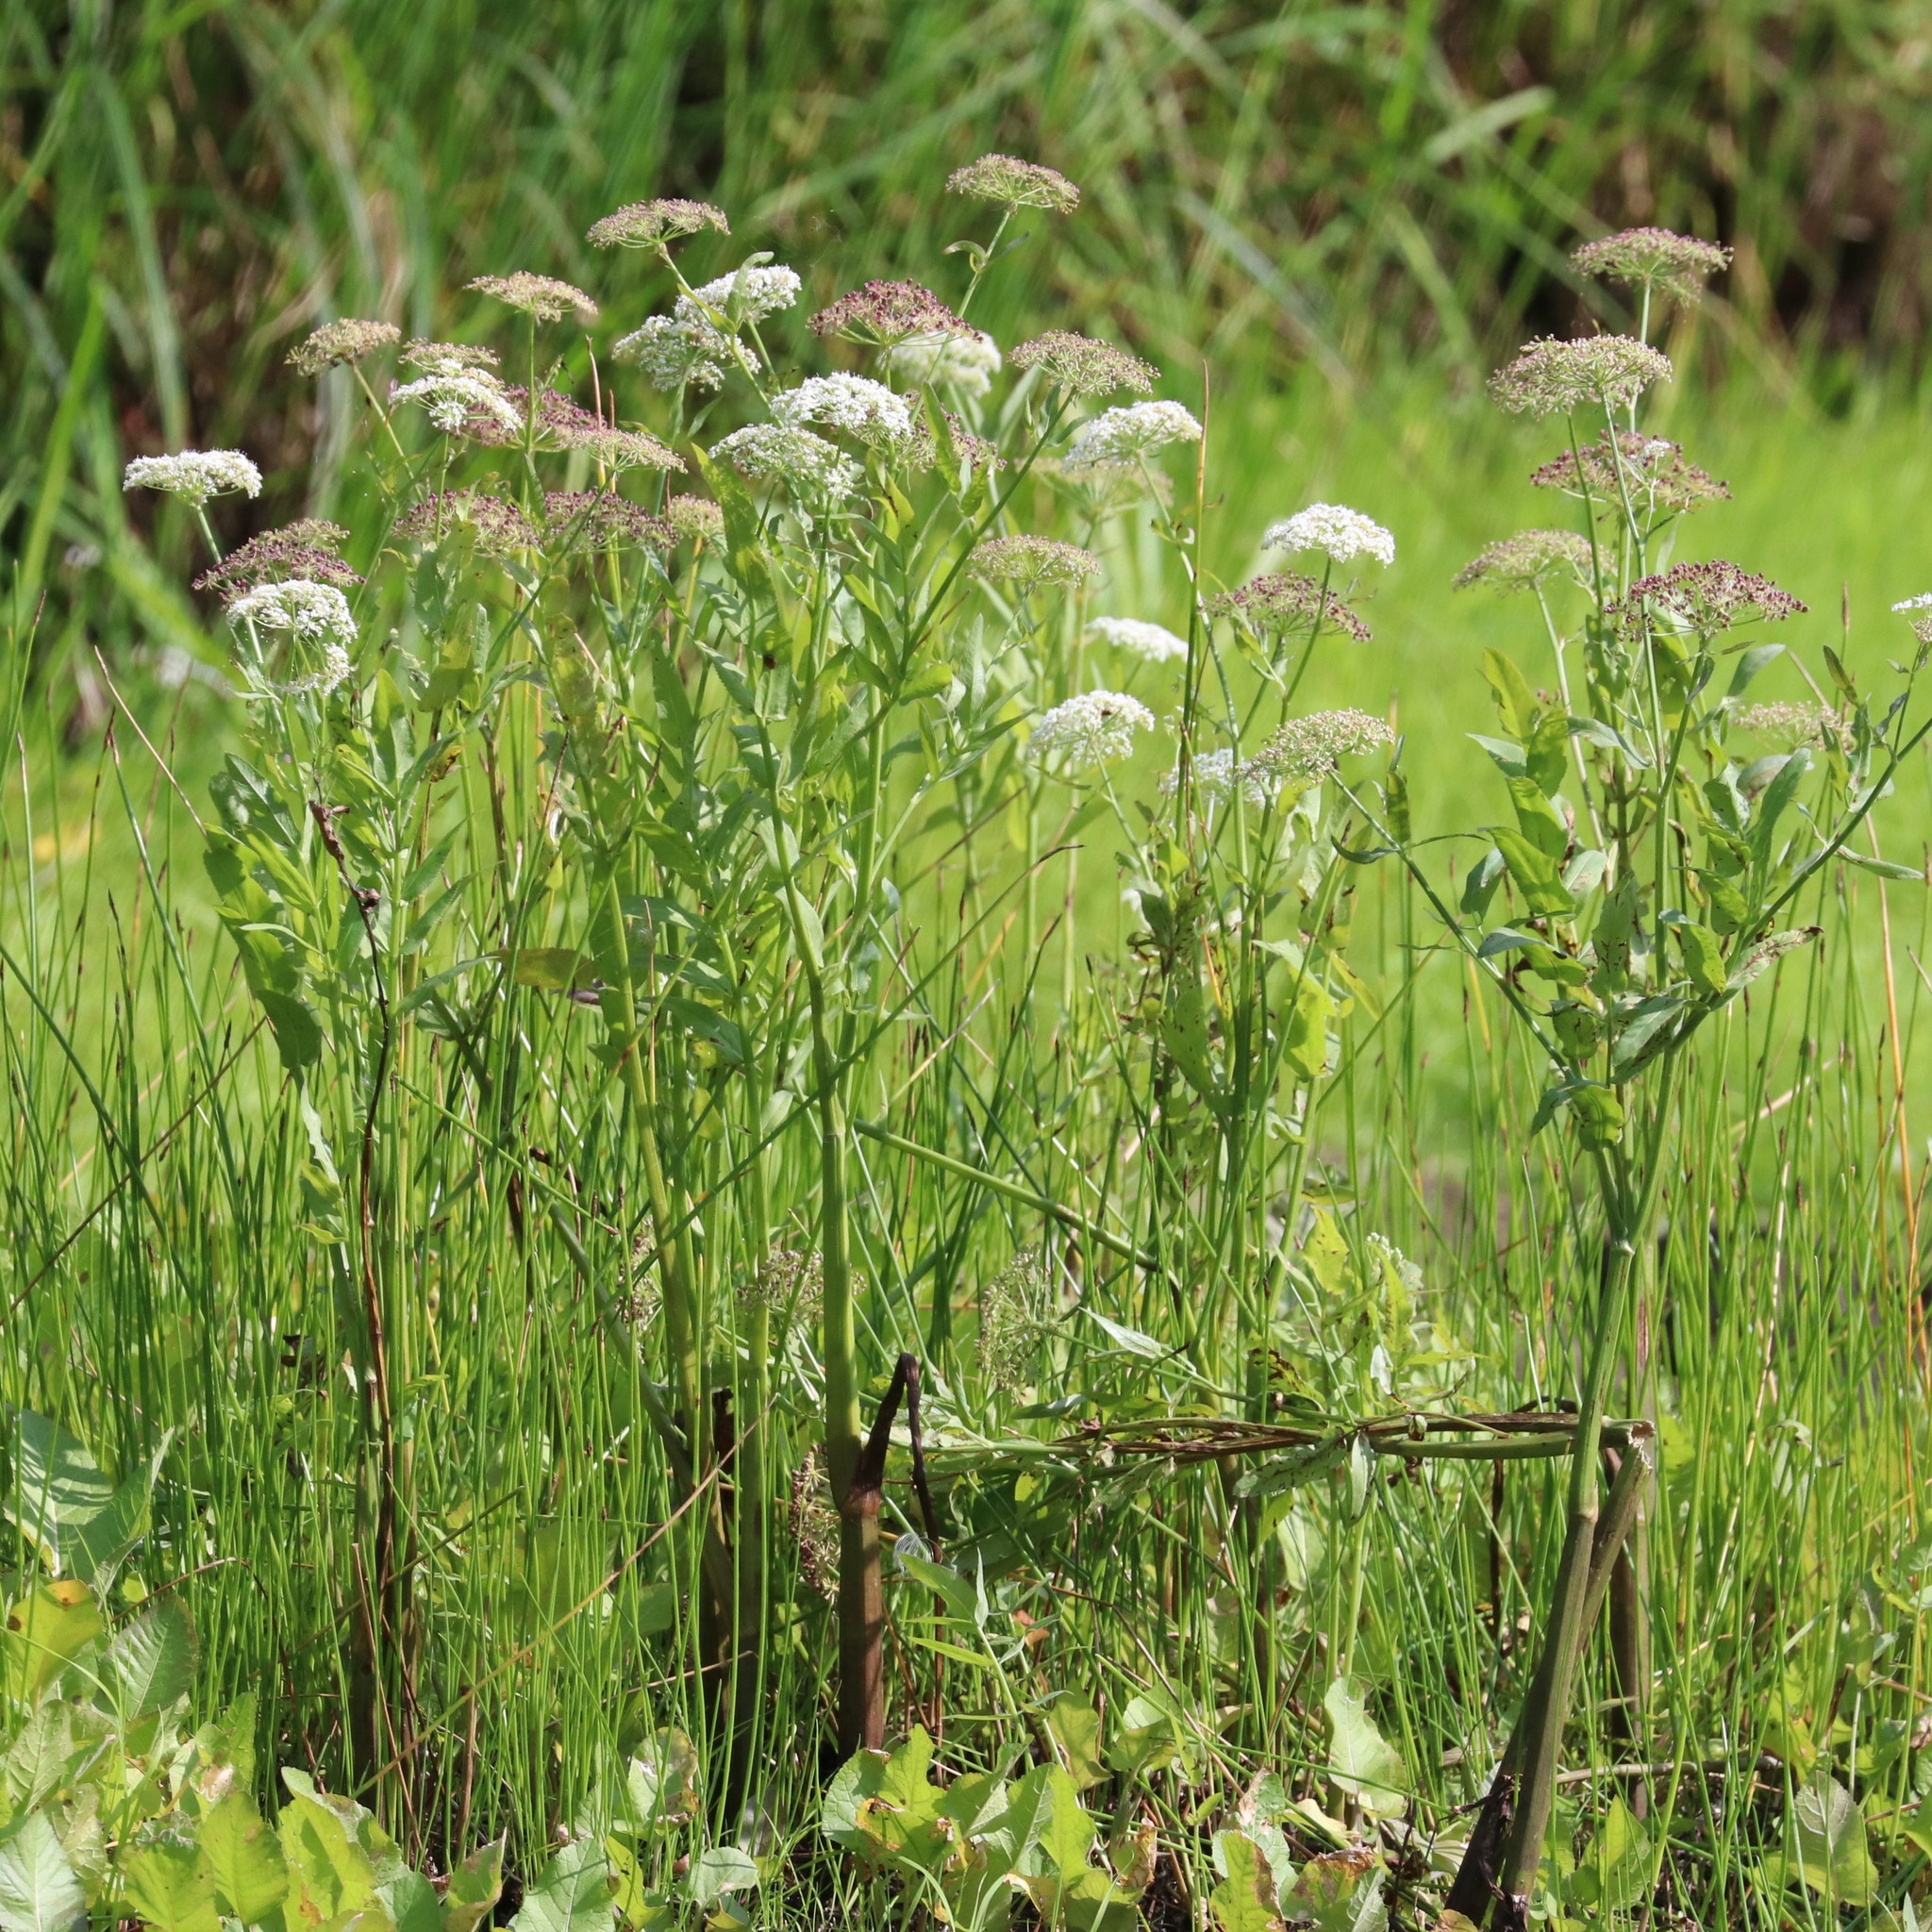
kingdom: Plantae
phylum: Tracheophyta
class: Magnoliopsida
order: Apiales
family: Apiaceae
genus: Sium
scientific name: Sium latifolium
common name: Greater water-parsnip
